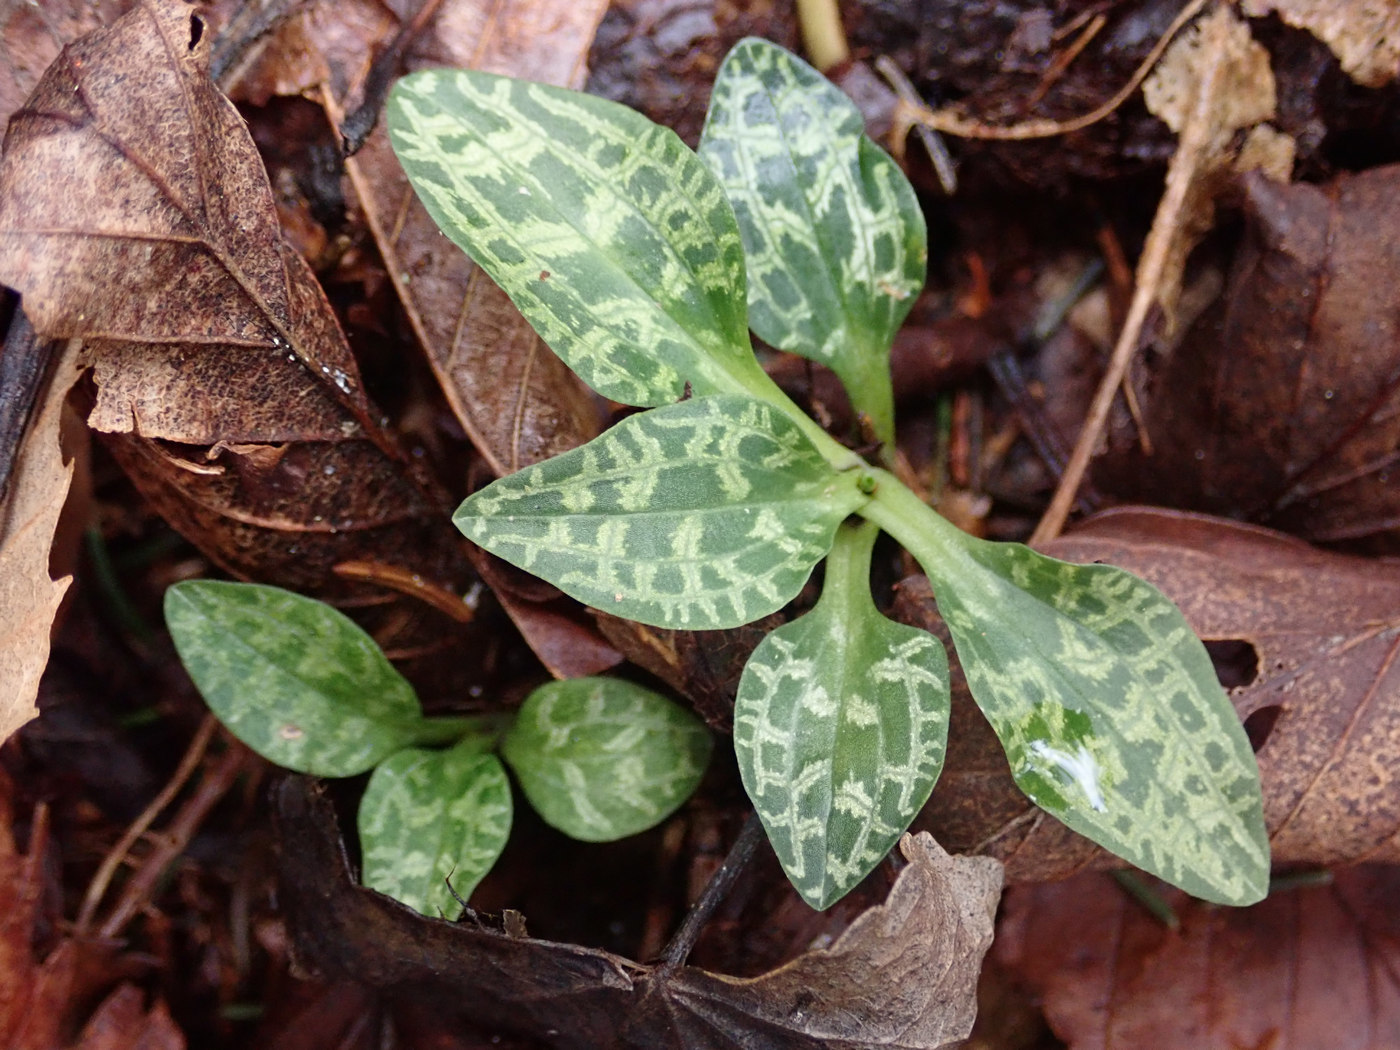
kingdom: Plantae
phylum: Tracheophyta
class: Liliopsida
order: Asparagales
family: Orchidaceae
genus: Goodyera
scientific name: Goodyera repens
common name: Creeping lady's-tresses
